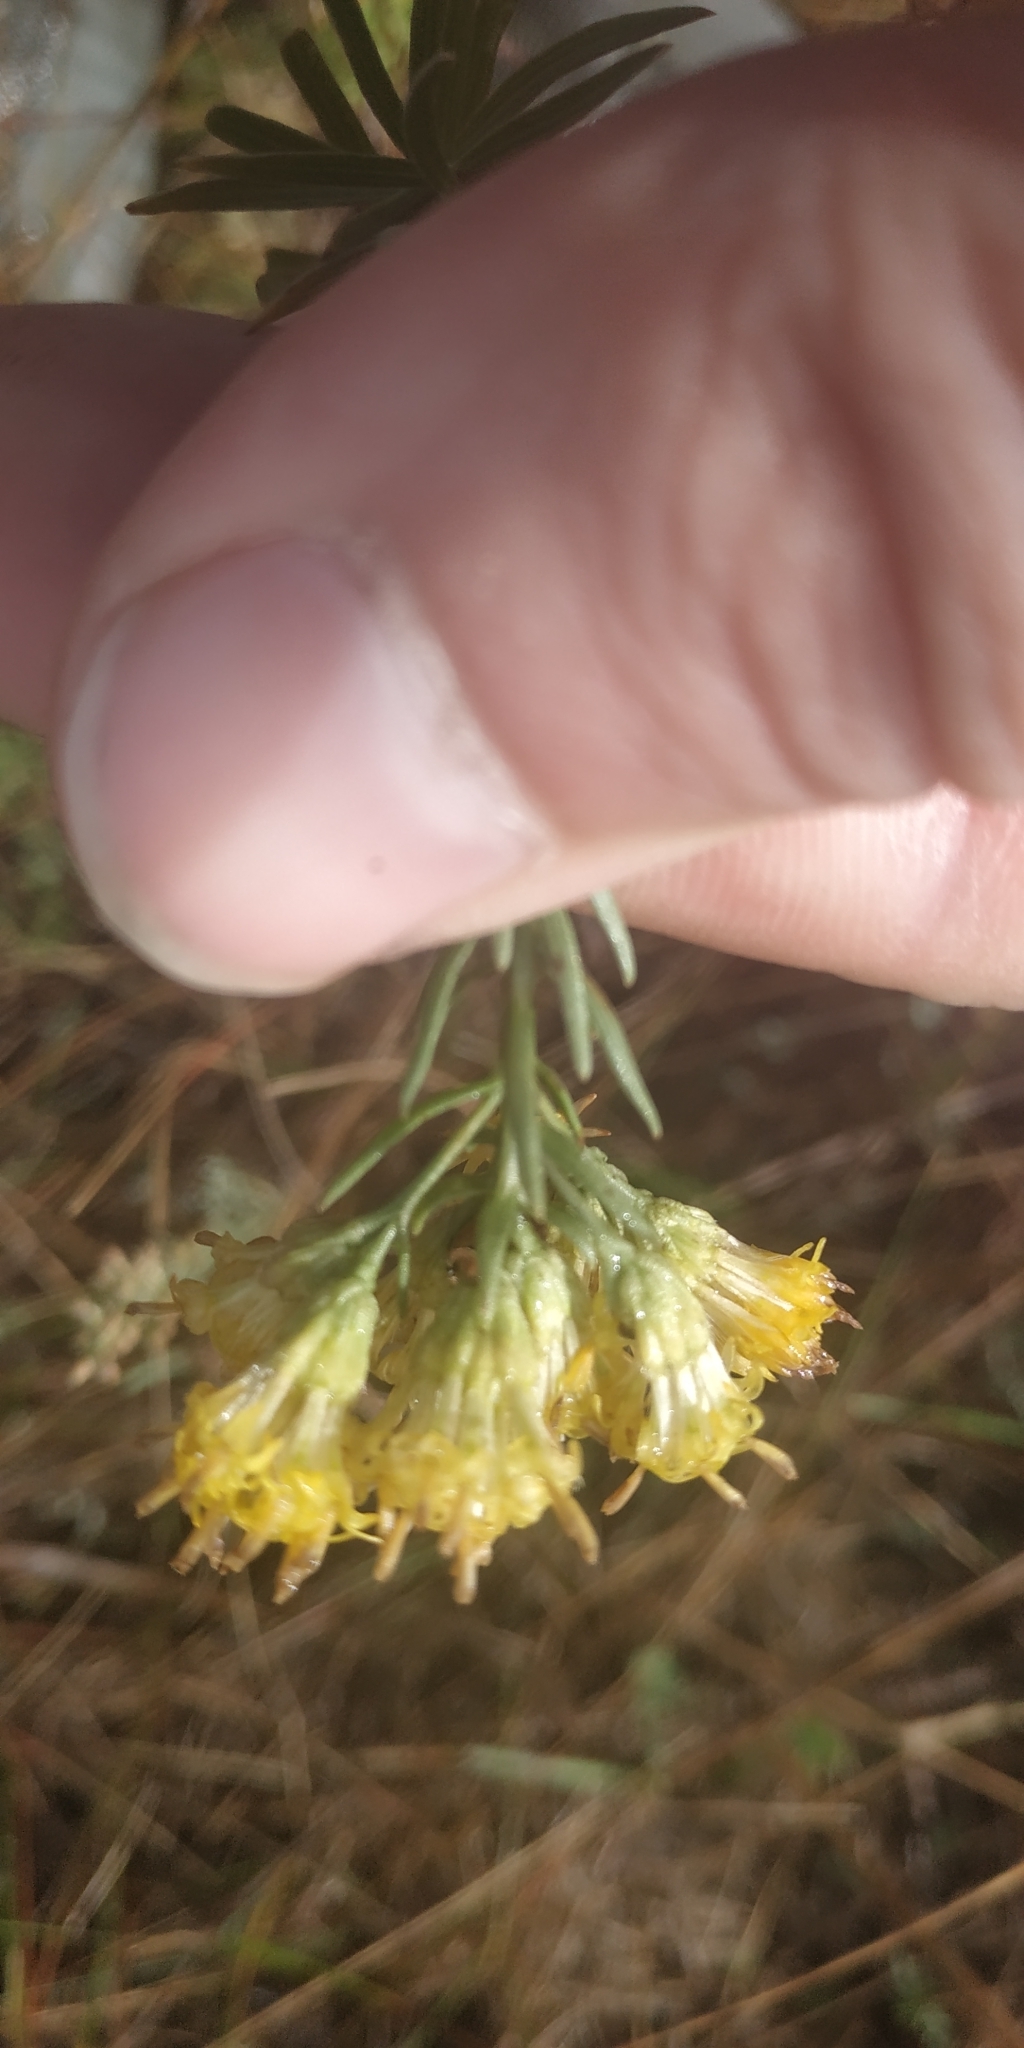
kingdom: Plantae
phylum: Tracheophyta
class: Magnoliopsida
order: Asterales
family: Asteraceae
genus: Galatella
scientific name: Galatella biflora
